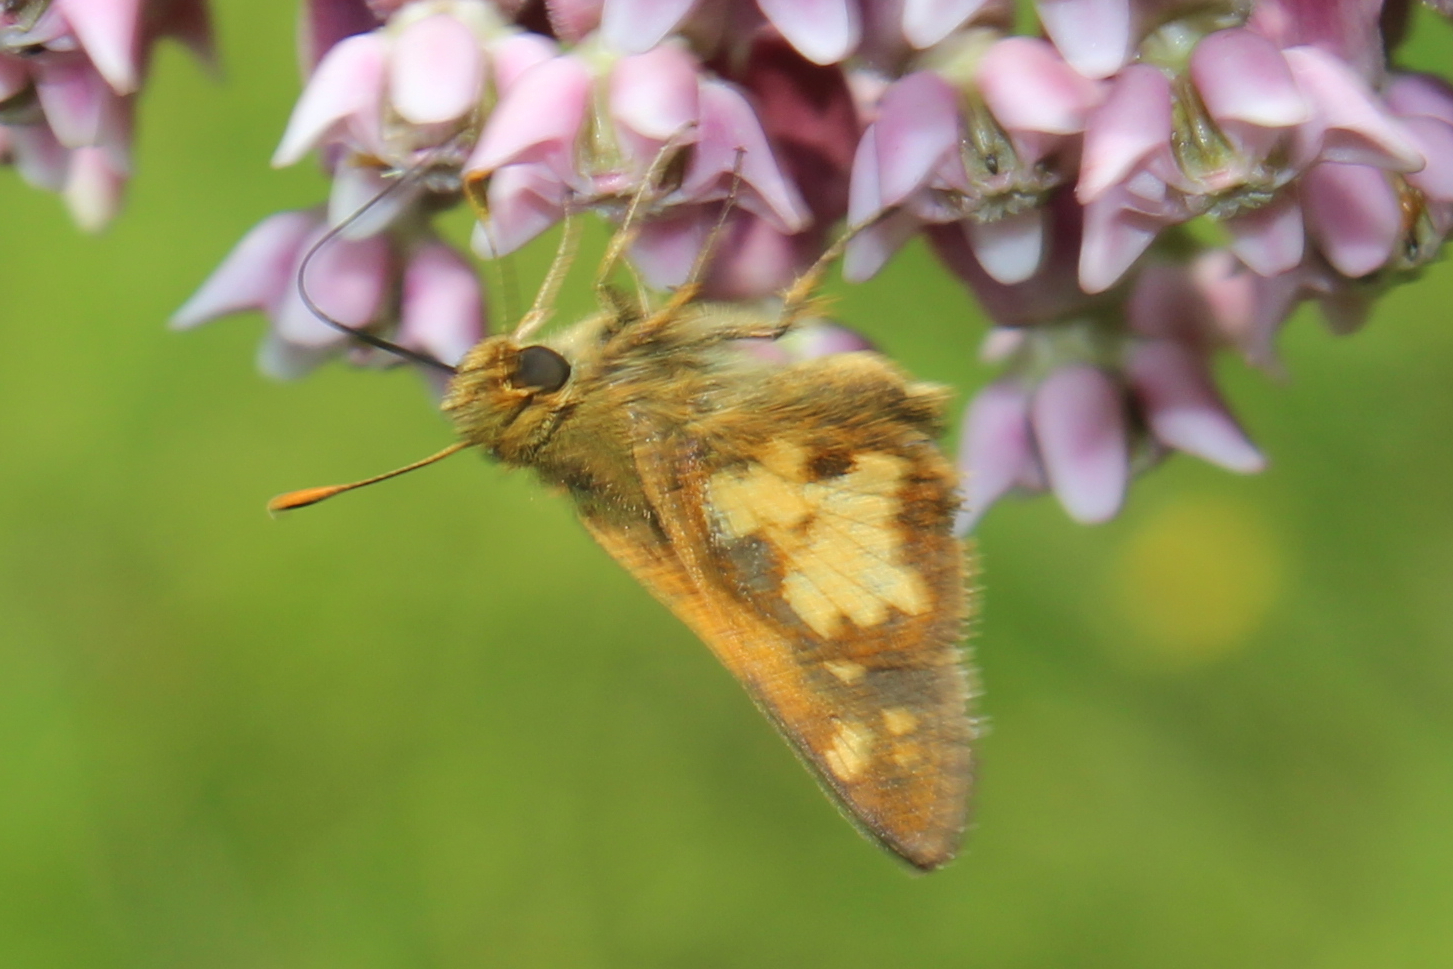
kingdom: Animalia
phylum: Arthropoda
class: Insecta
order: Lepidoptera
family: Hesperiidae
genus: Polites
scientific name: Polites coras
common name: Peck's skipper
